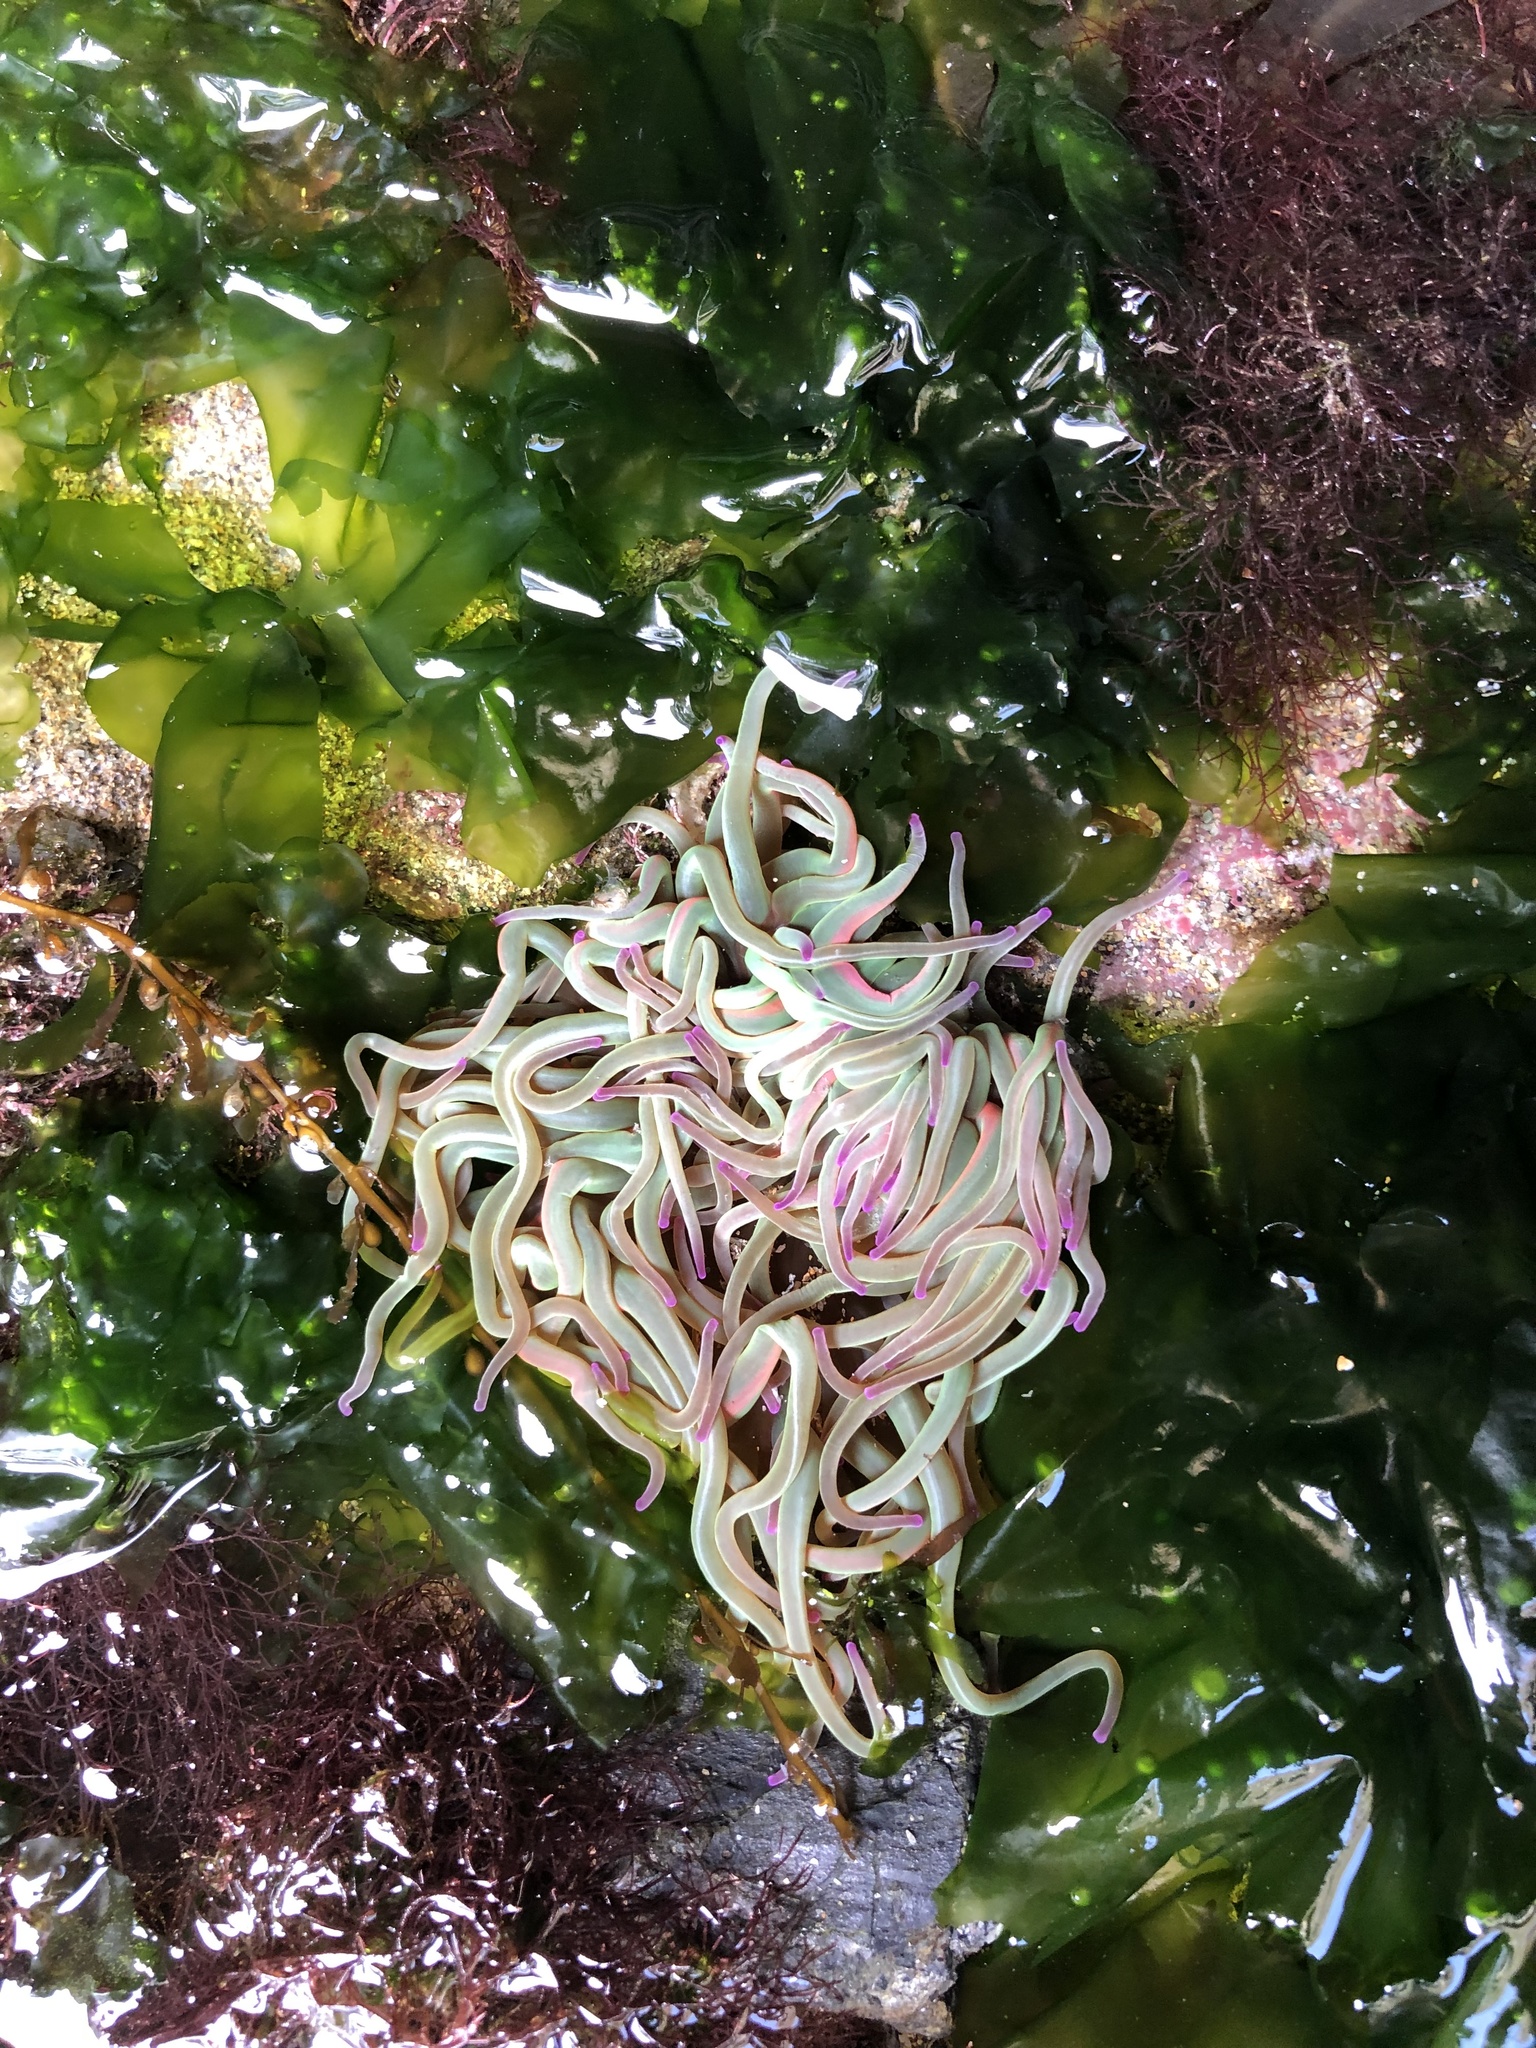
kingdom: Animalia
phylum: Cnidaria
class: Anthozoa
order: Actiniaria
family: Actiniidae
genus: Anemonia
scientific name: Anemonia viridis
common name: Snakelocks anemone
